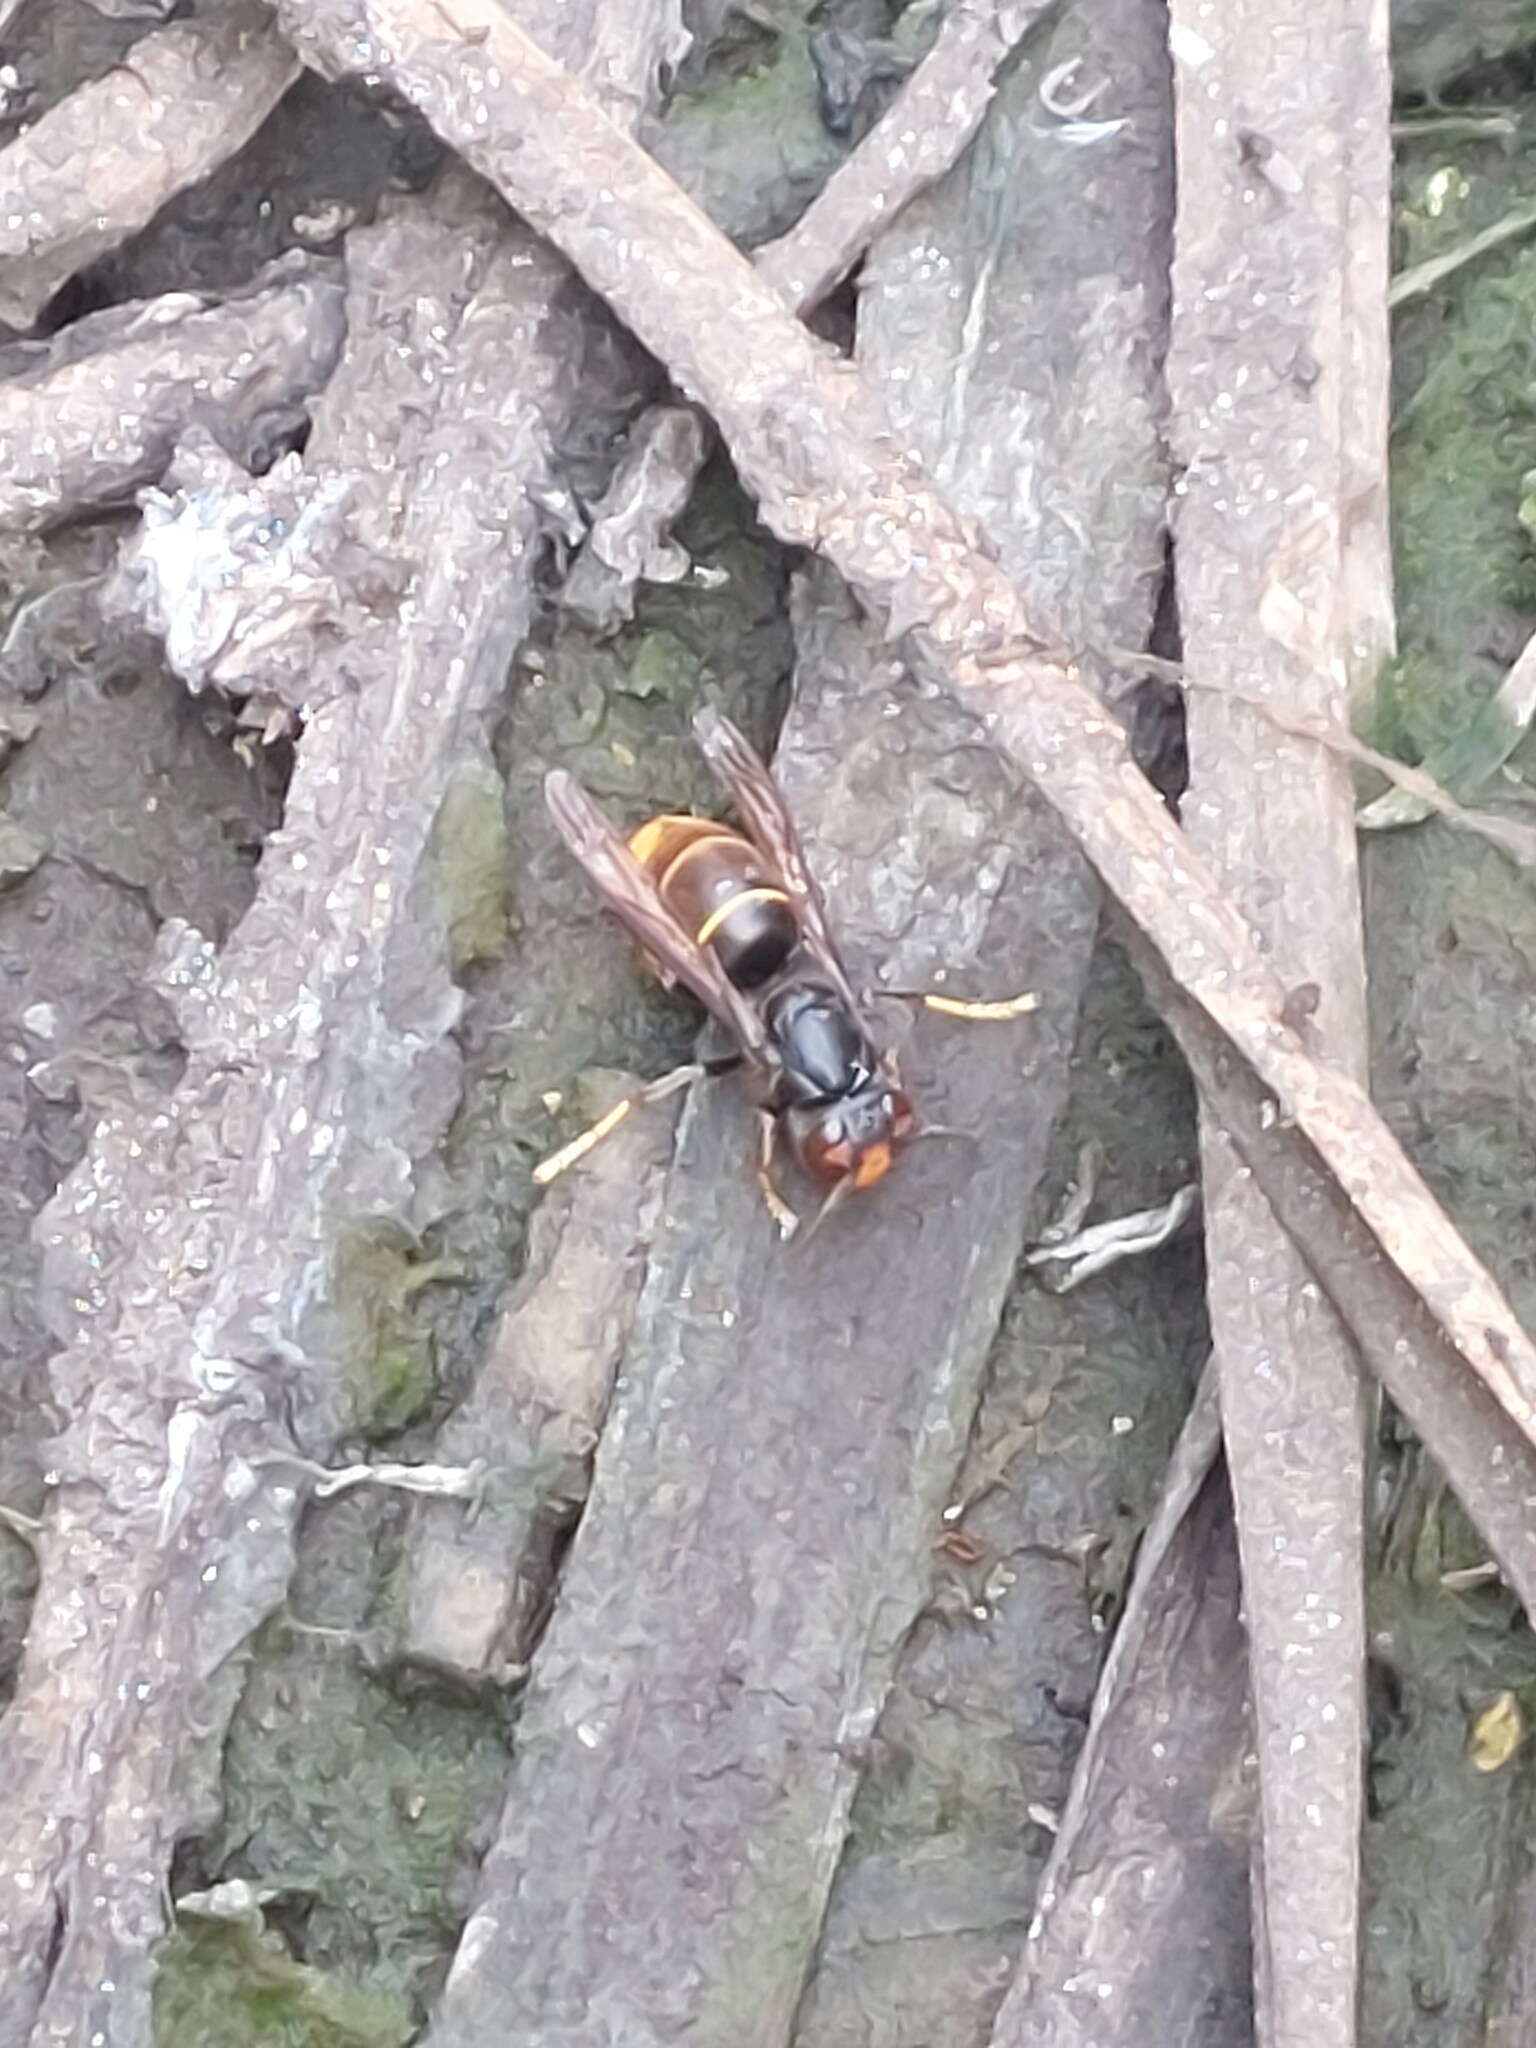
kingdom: Animalia
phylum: Arthropoda
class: Insecta
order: Hymenoptera
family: Vespidae
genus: Vespa
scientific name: Vespa velutina
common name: Asian hornet
